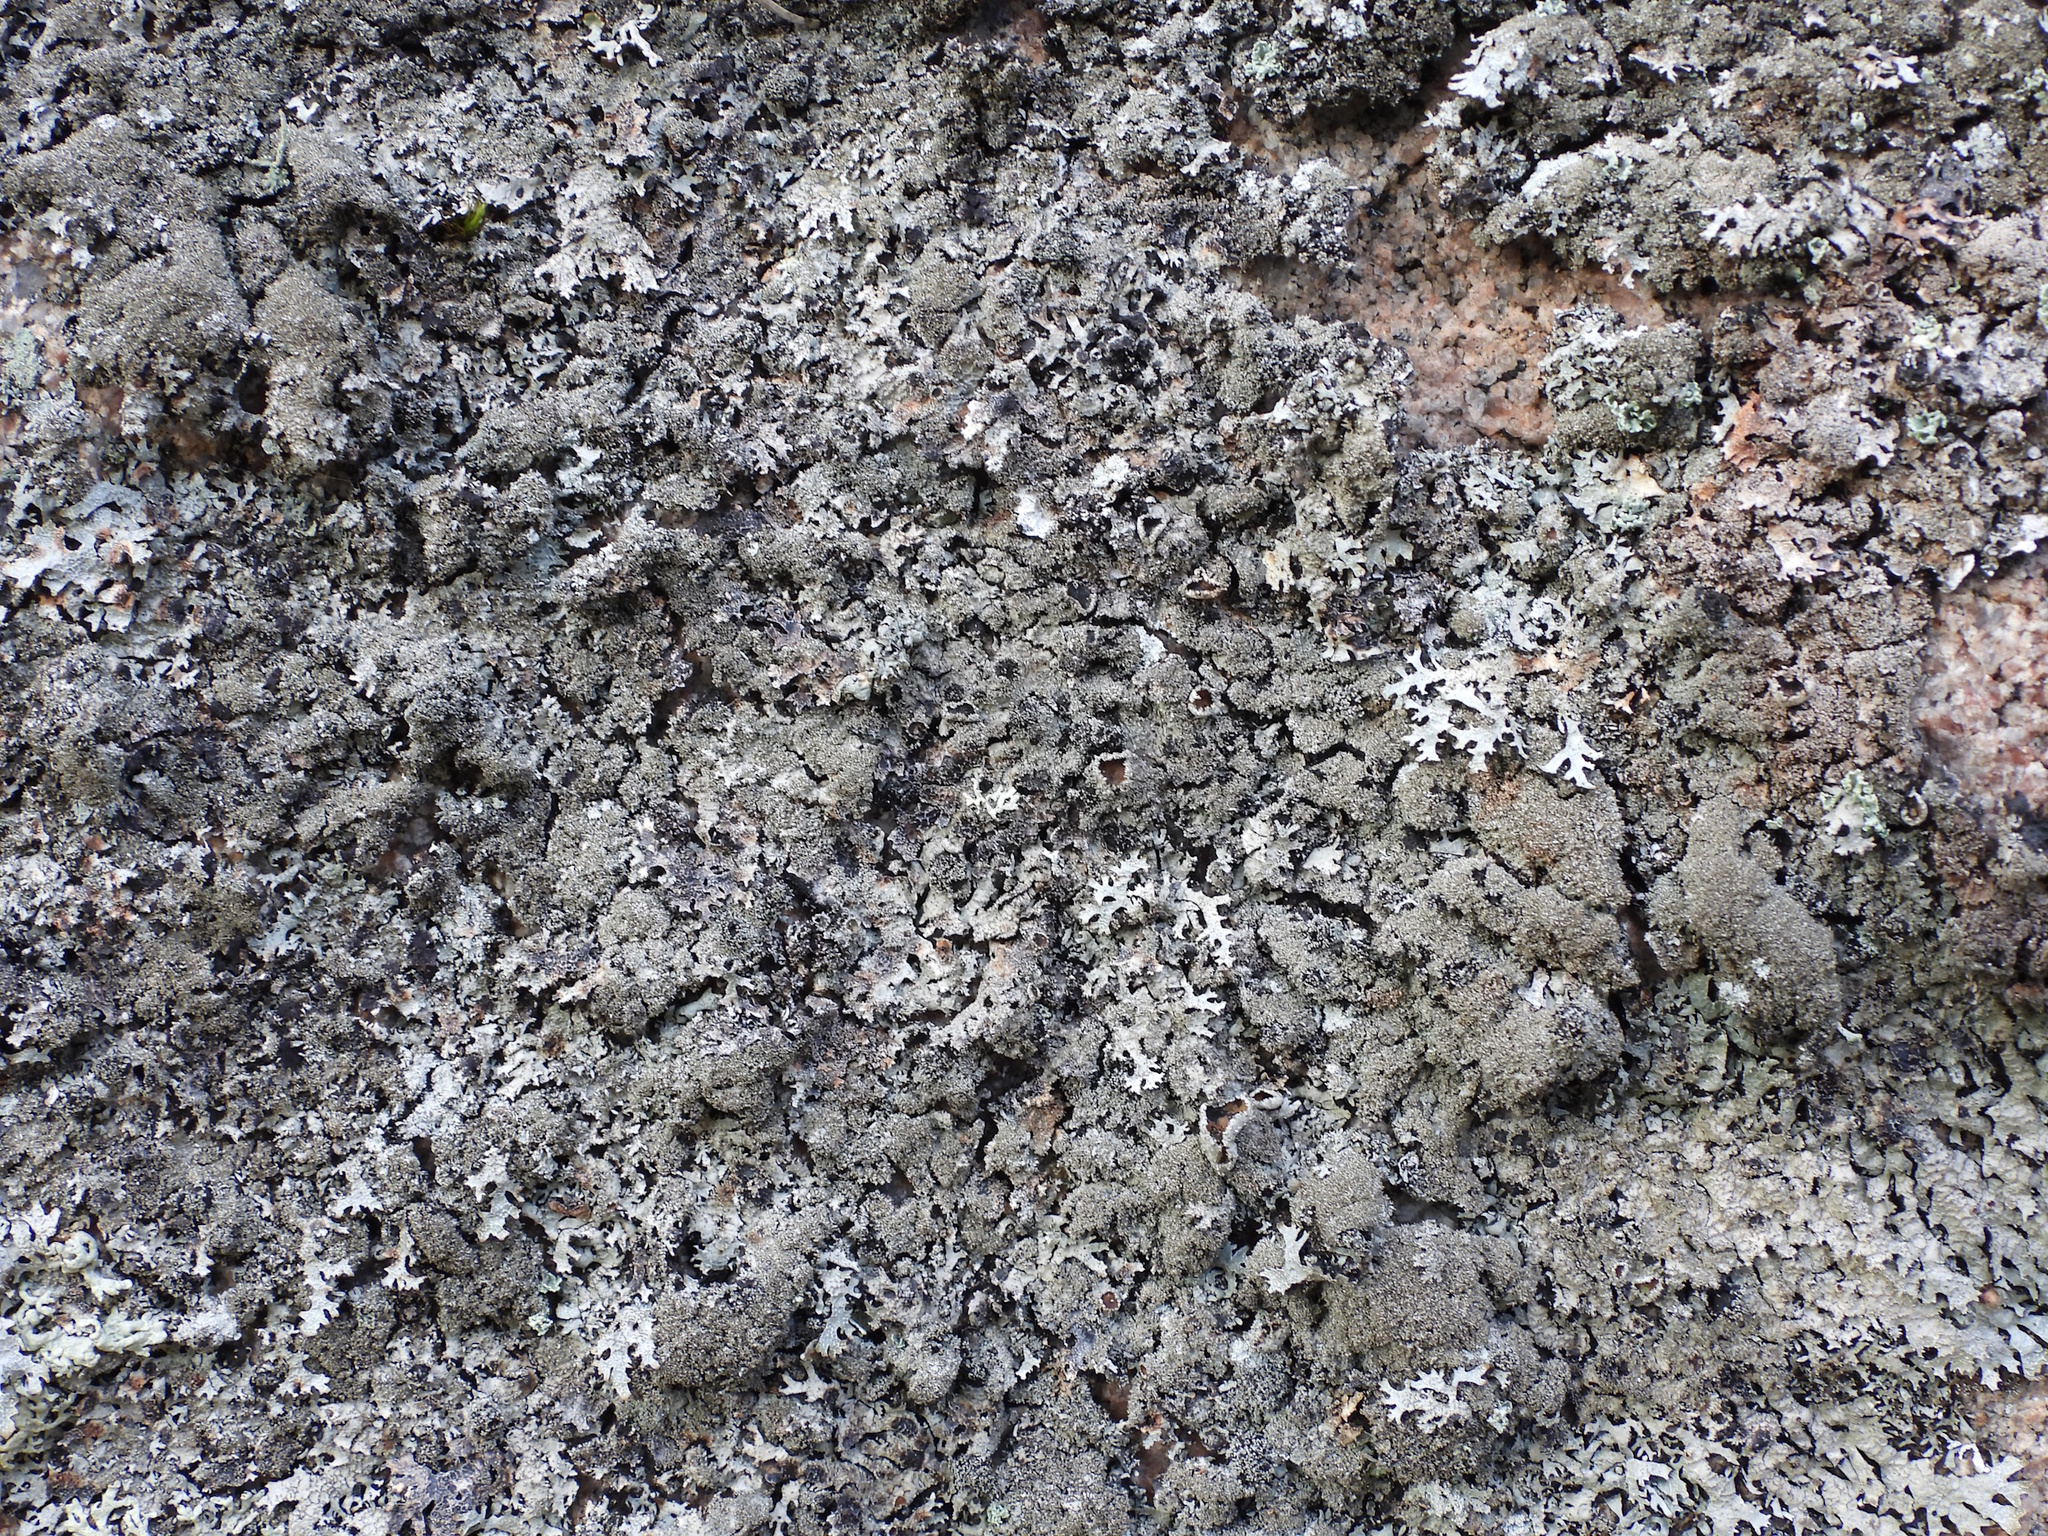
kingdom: Fungi
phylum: Ascomycota
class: Lecanoromycetes
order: Lecanorales
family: Parmeliaceae
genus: Parmelia
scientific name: Parmelia saxatilis
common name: Salted shield lichen
